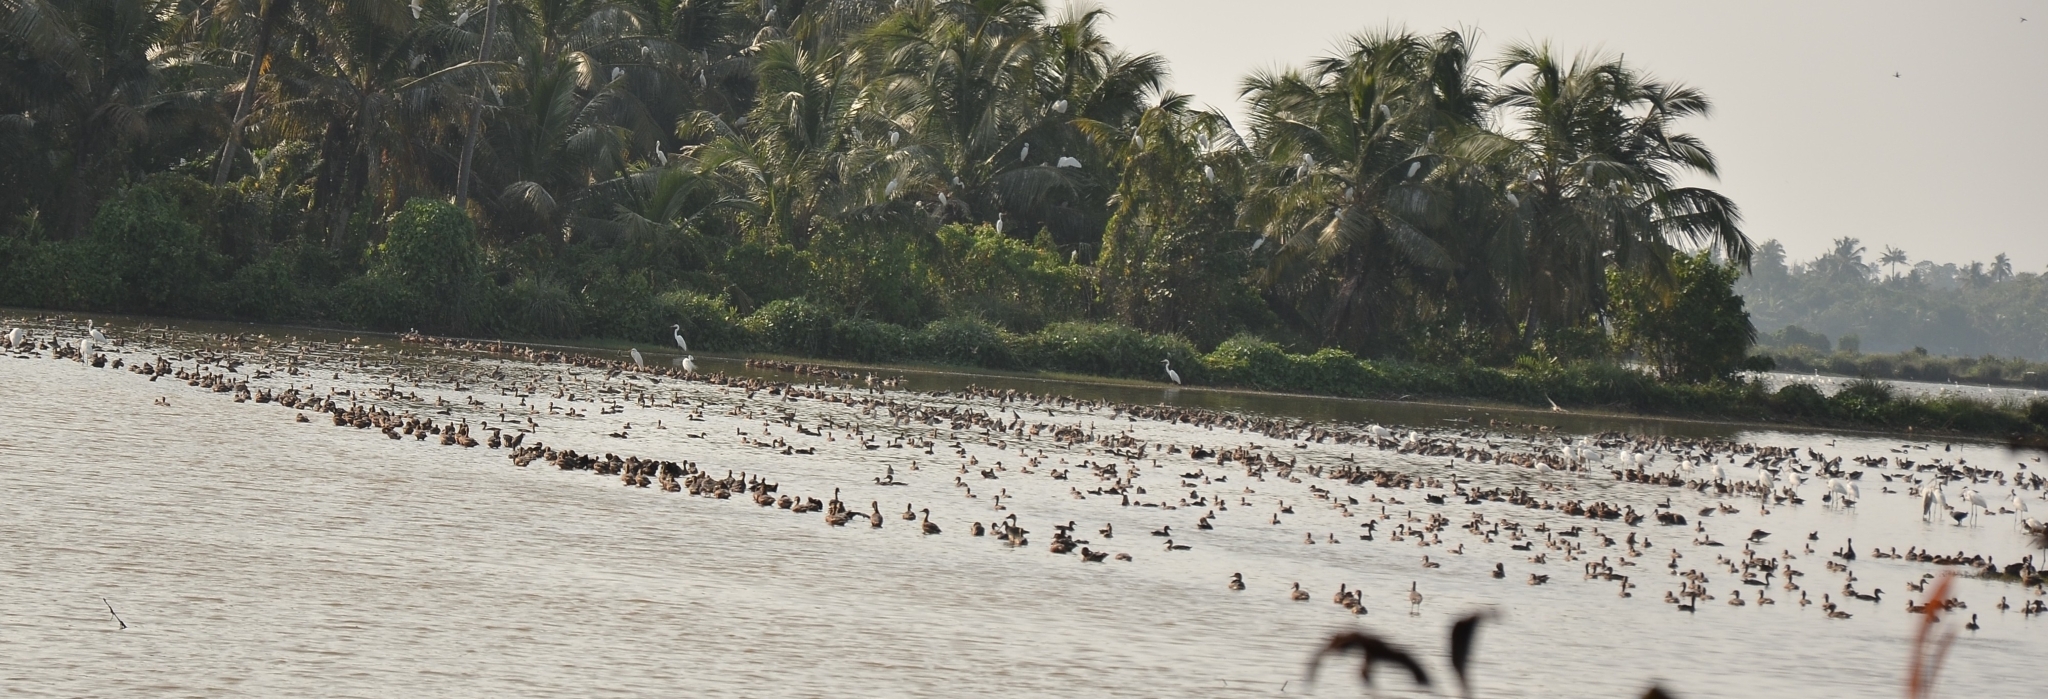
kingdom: Animalia
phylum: Chordata
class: Aves
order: Anseriformes
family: Anatidae
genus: Spatula
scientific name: Spatula querquedula
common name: Garganey
